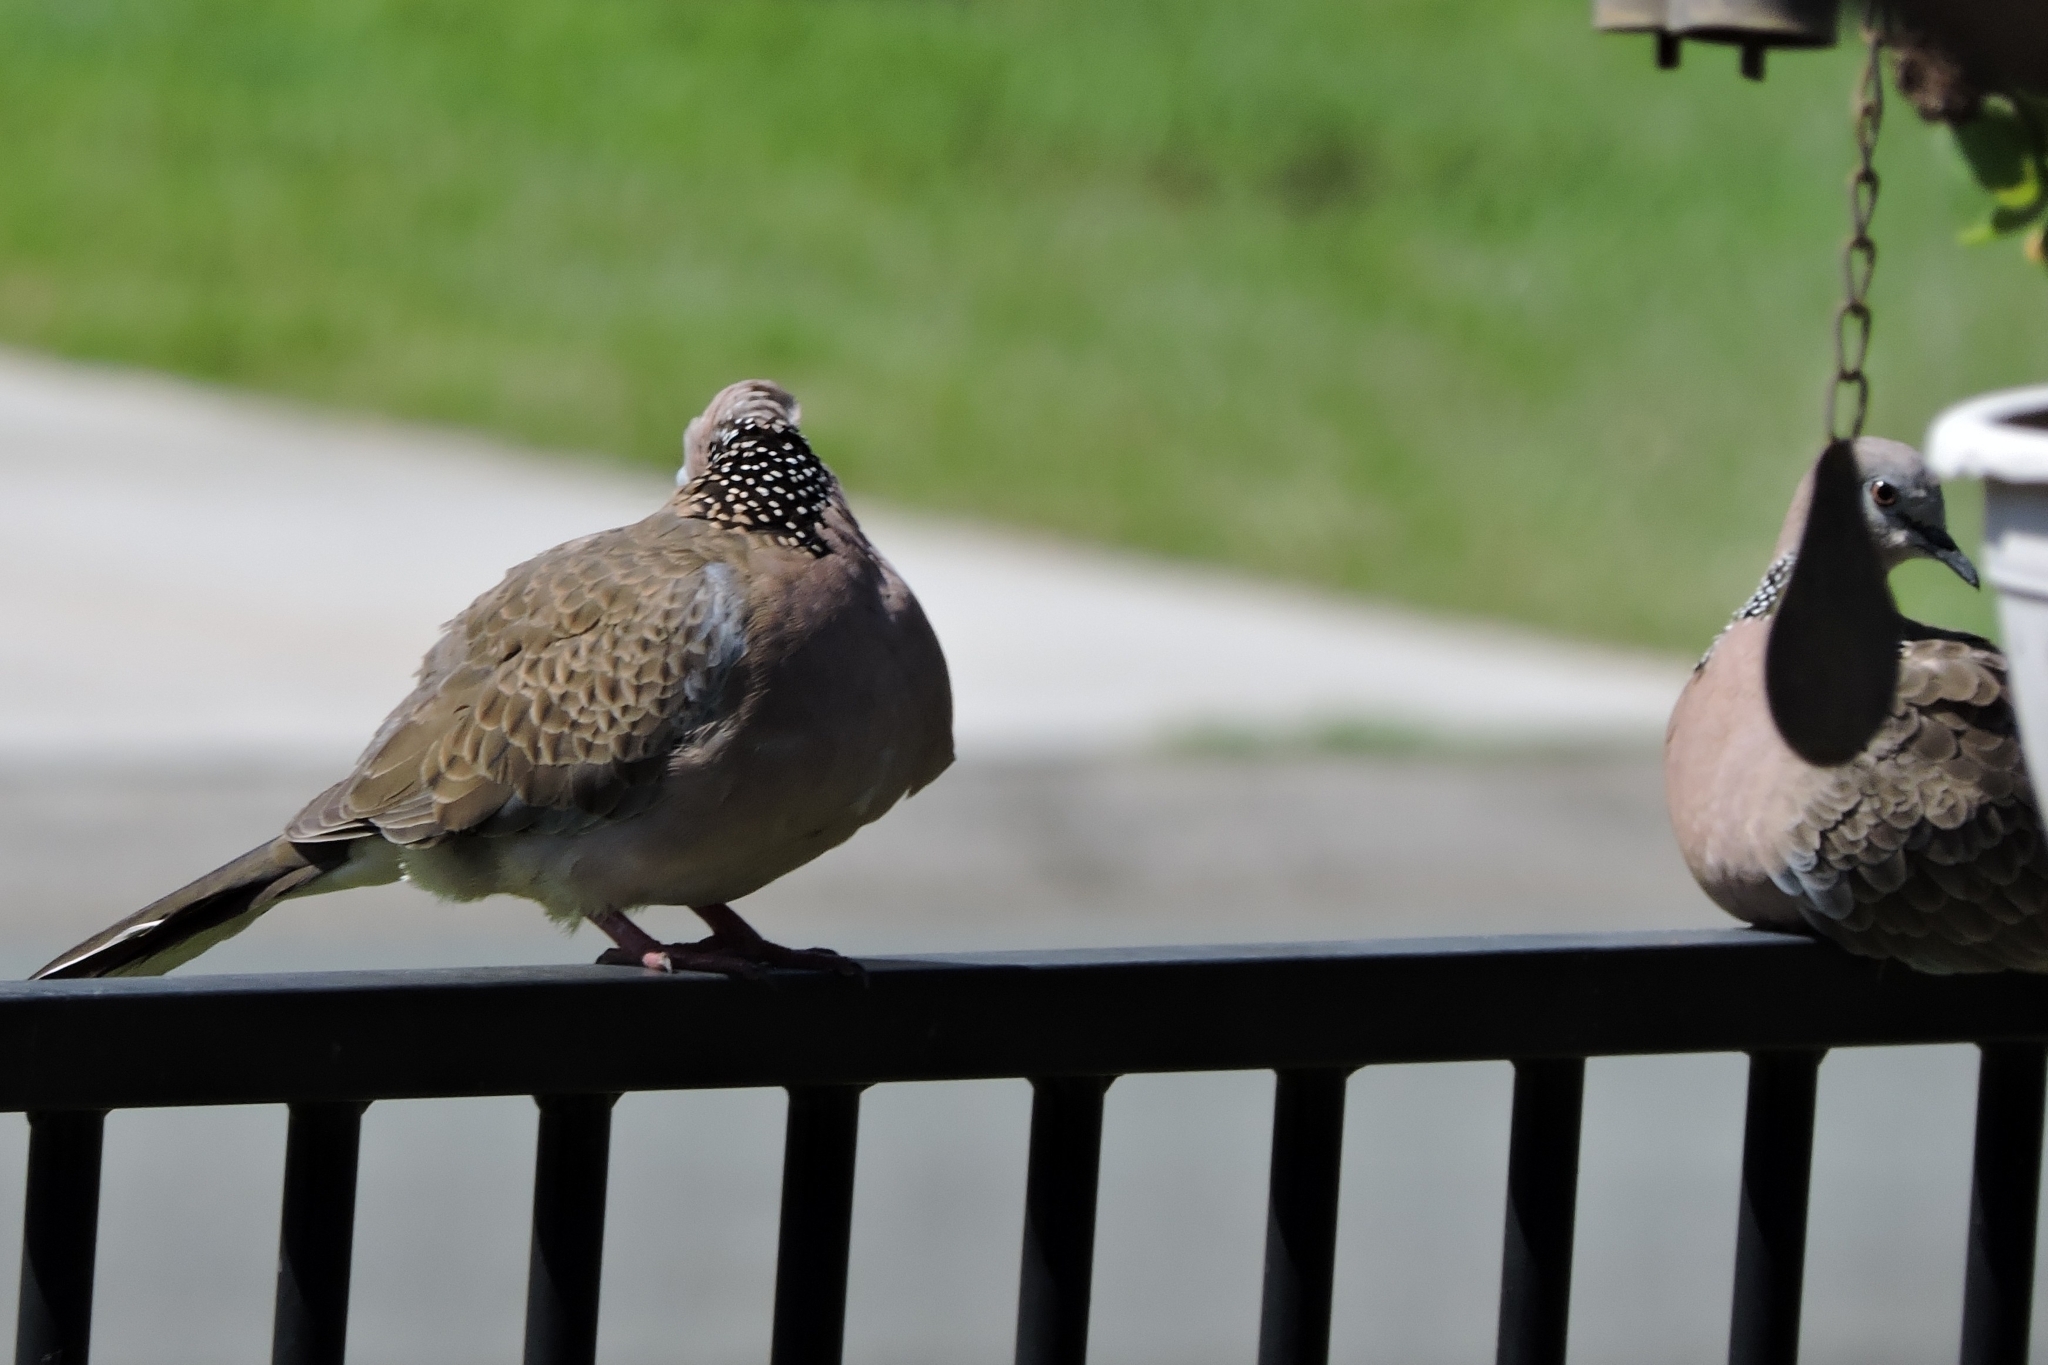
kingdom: Animalia
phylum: Chordata
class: Aves
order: Columbiformes
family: Columbidae
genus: Spilopelia
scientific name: Spilopelia chinensis
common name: Spotted dove
